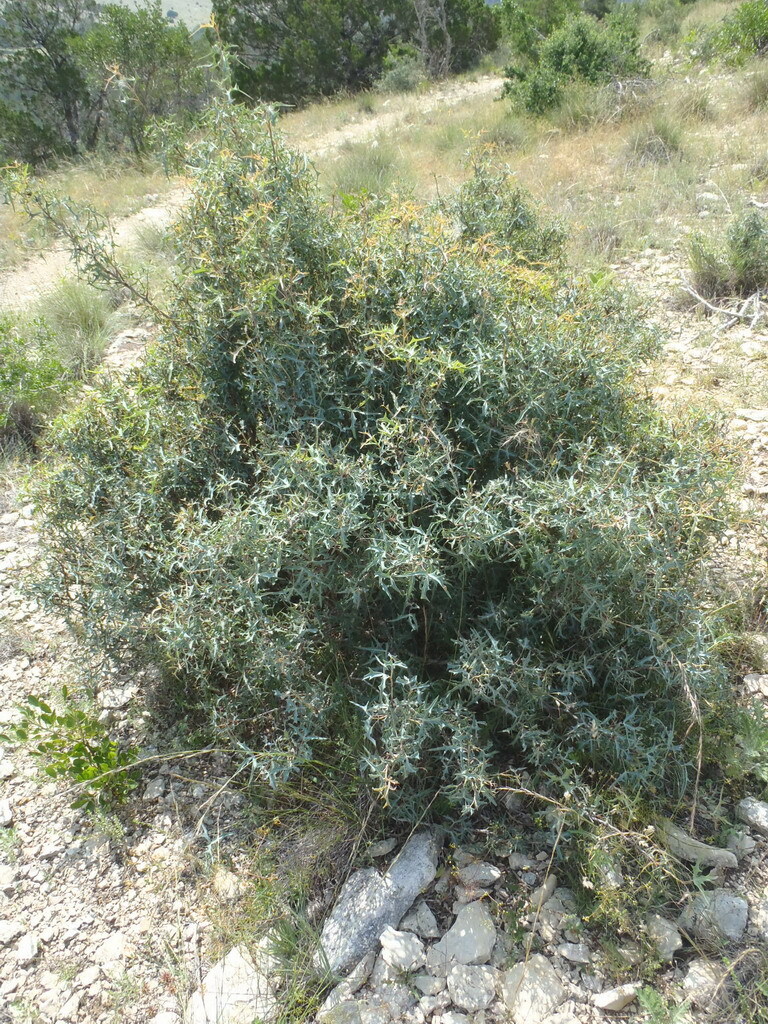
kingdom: Plantae
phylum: Tracheophyta
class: Magnoliopsida
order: Ranunculales
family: Berberidaceae
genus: Alloberberis
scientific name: Alloberberis trifoliolata
